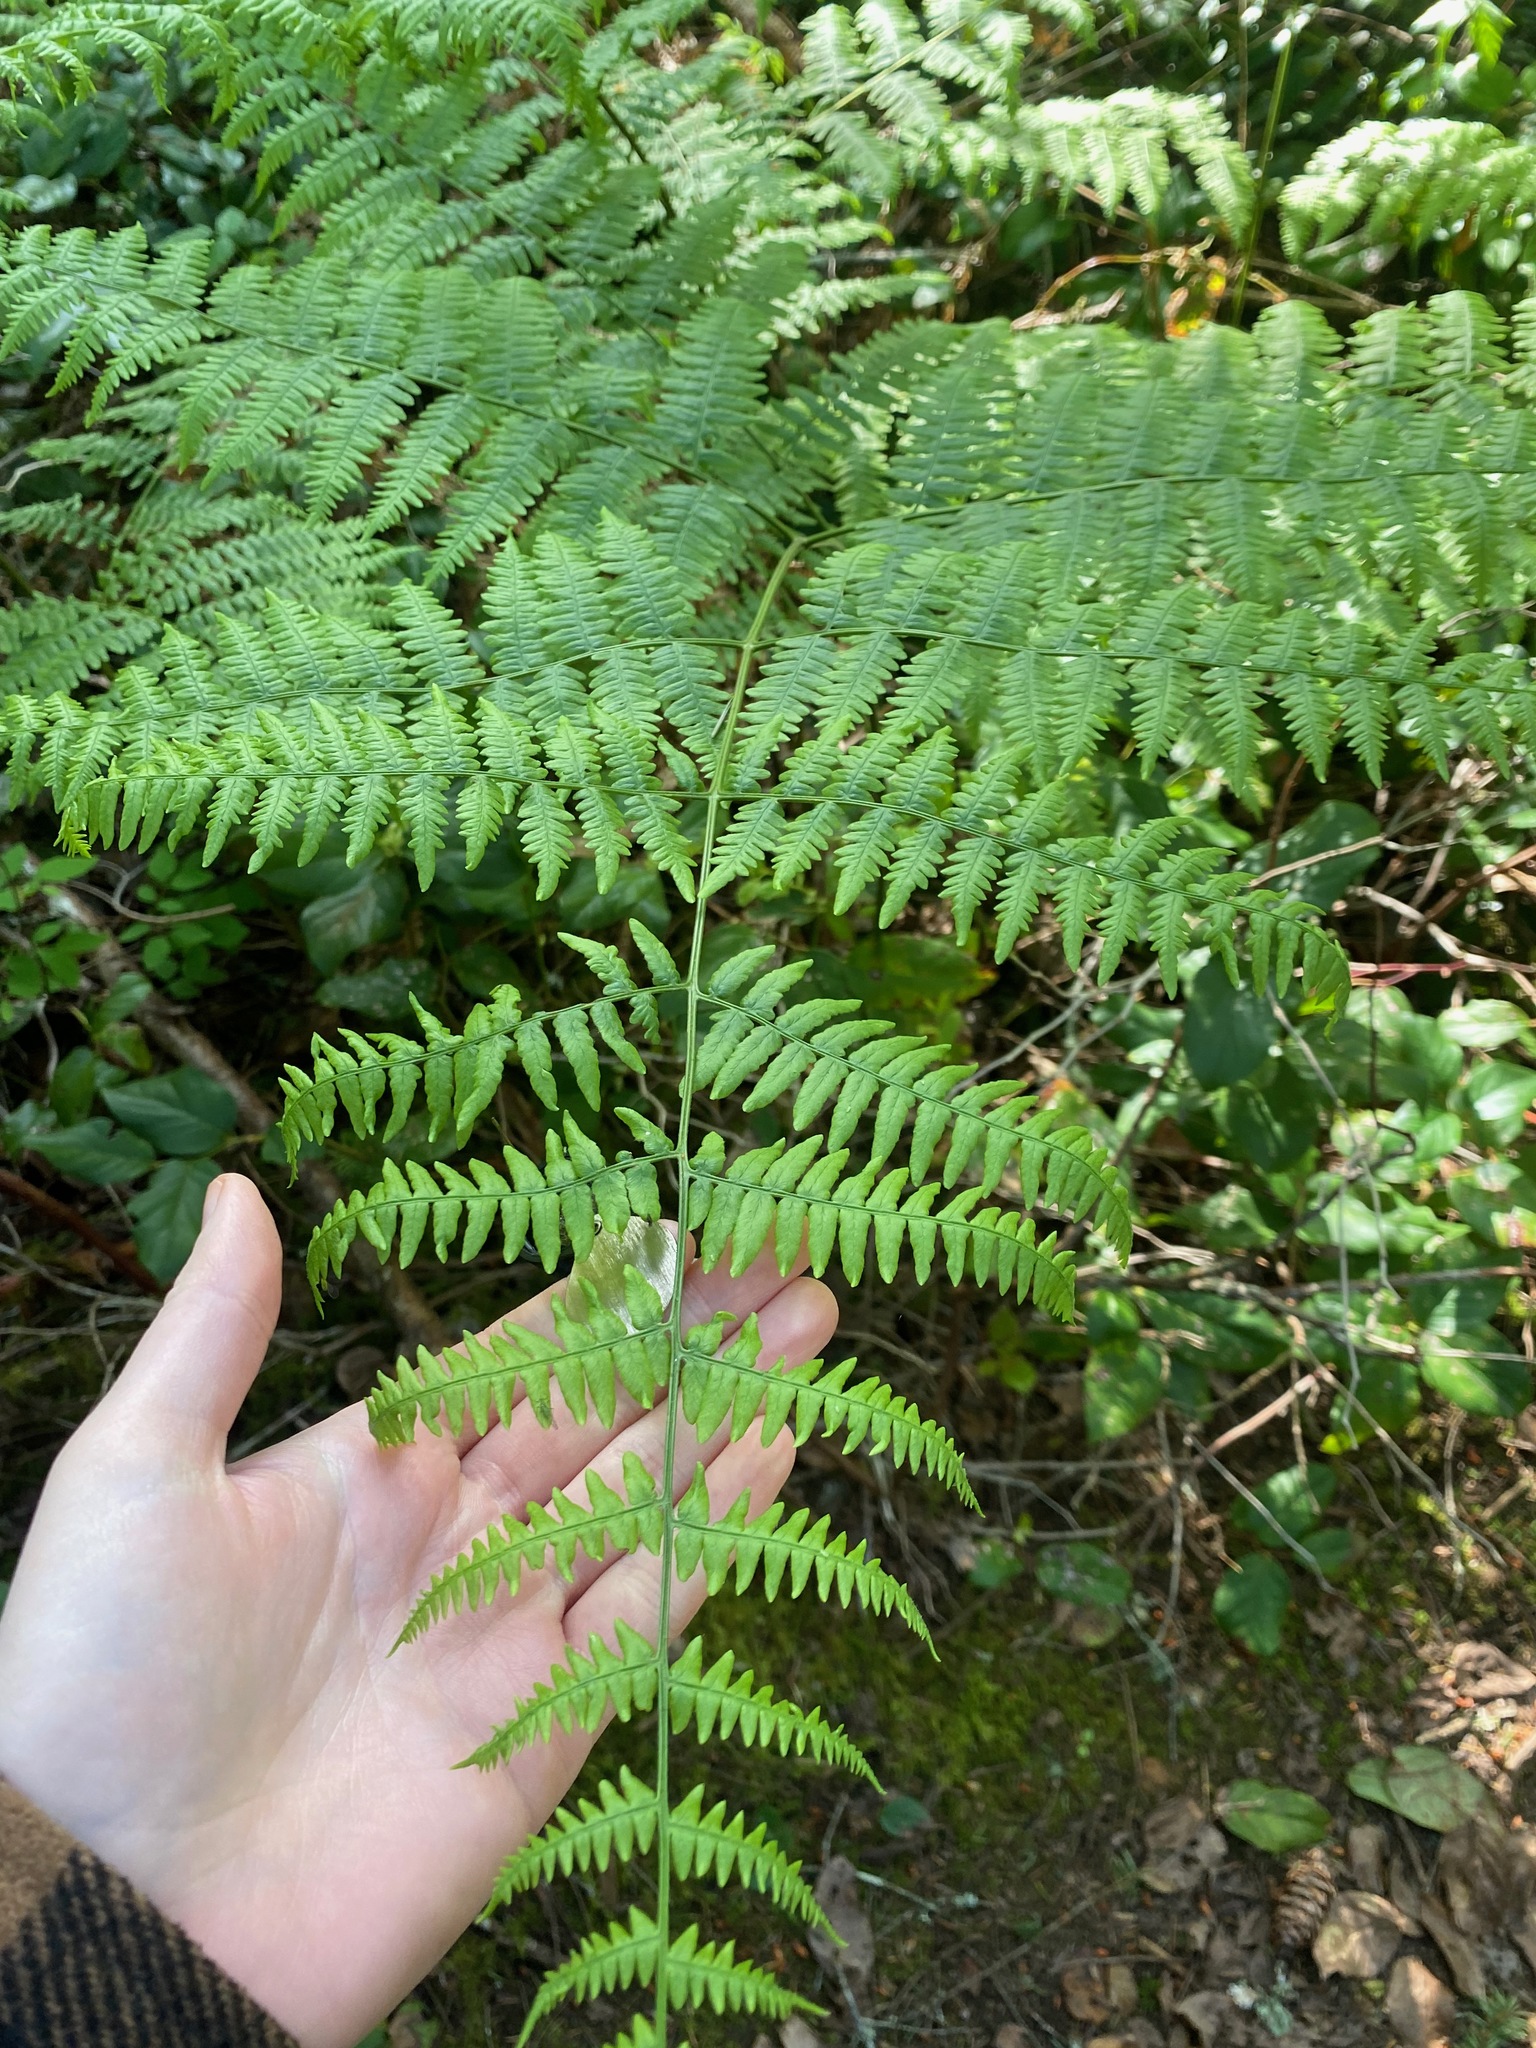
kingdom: Plantae
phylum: Tracheophyta
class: Polypodiopsida
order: Polypodiales
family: Dennstaedtiaceae
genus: Pteridium
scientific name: Pteridium aquilinum
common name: Bracken
